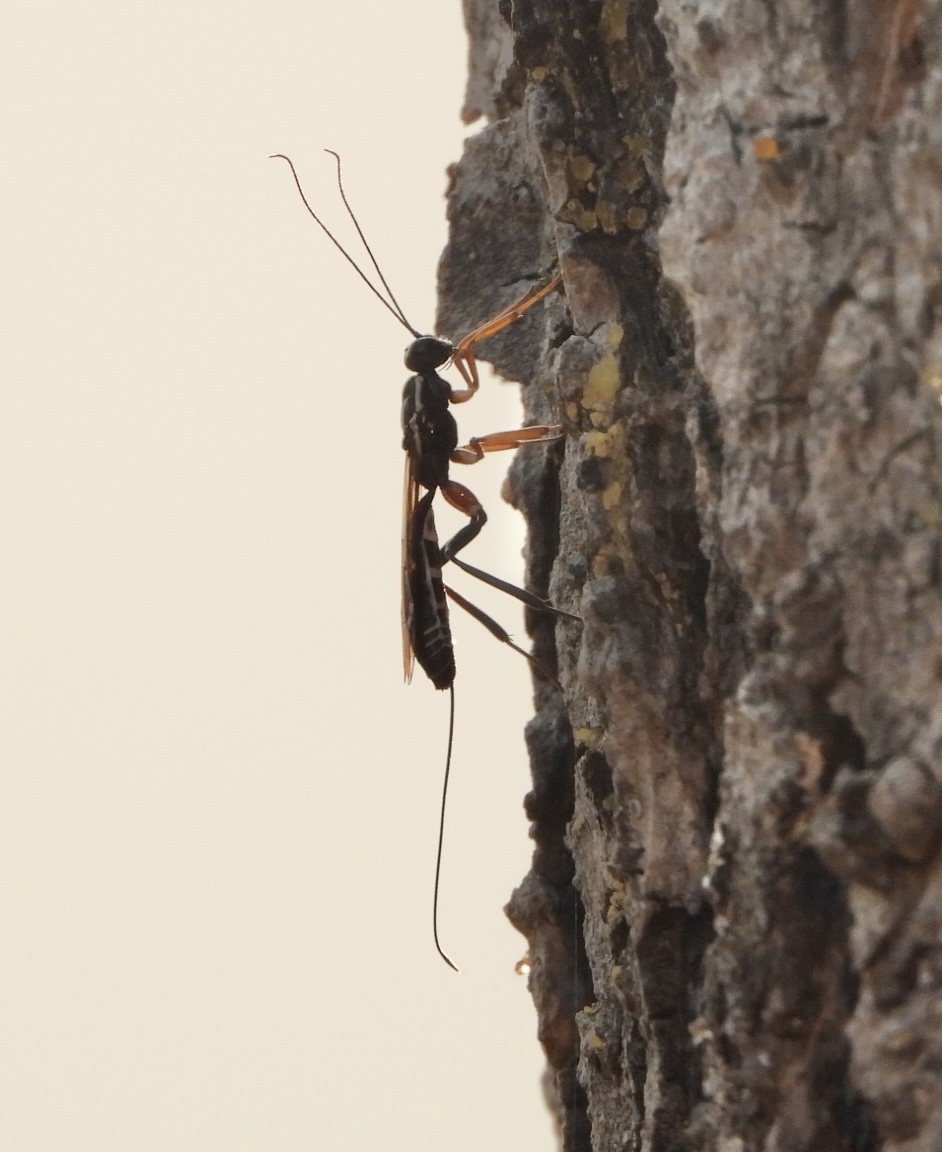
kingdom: Animalia
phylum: Arthropoda
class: Insecta
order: Hymenoptera
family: Ichneumonidae
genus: Xorides
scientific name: Xorides insularis
